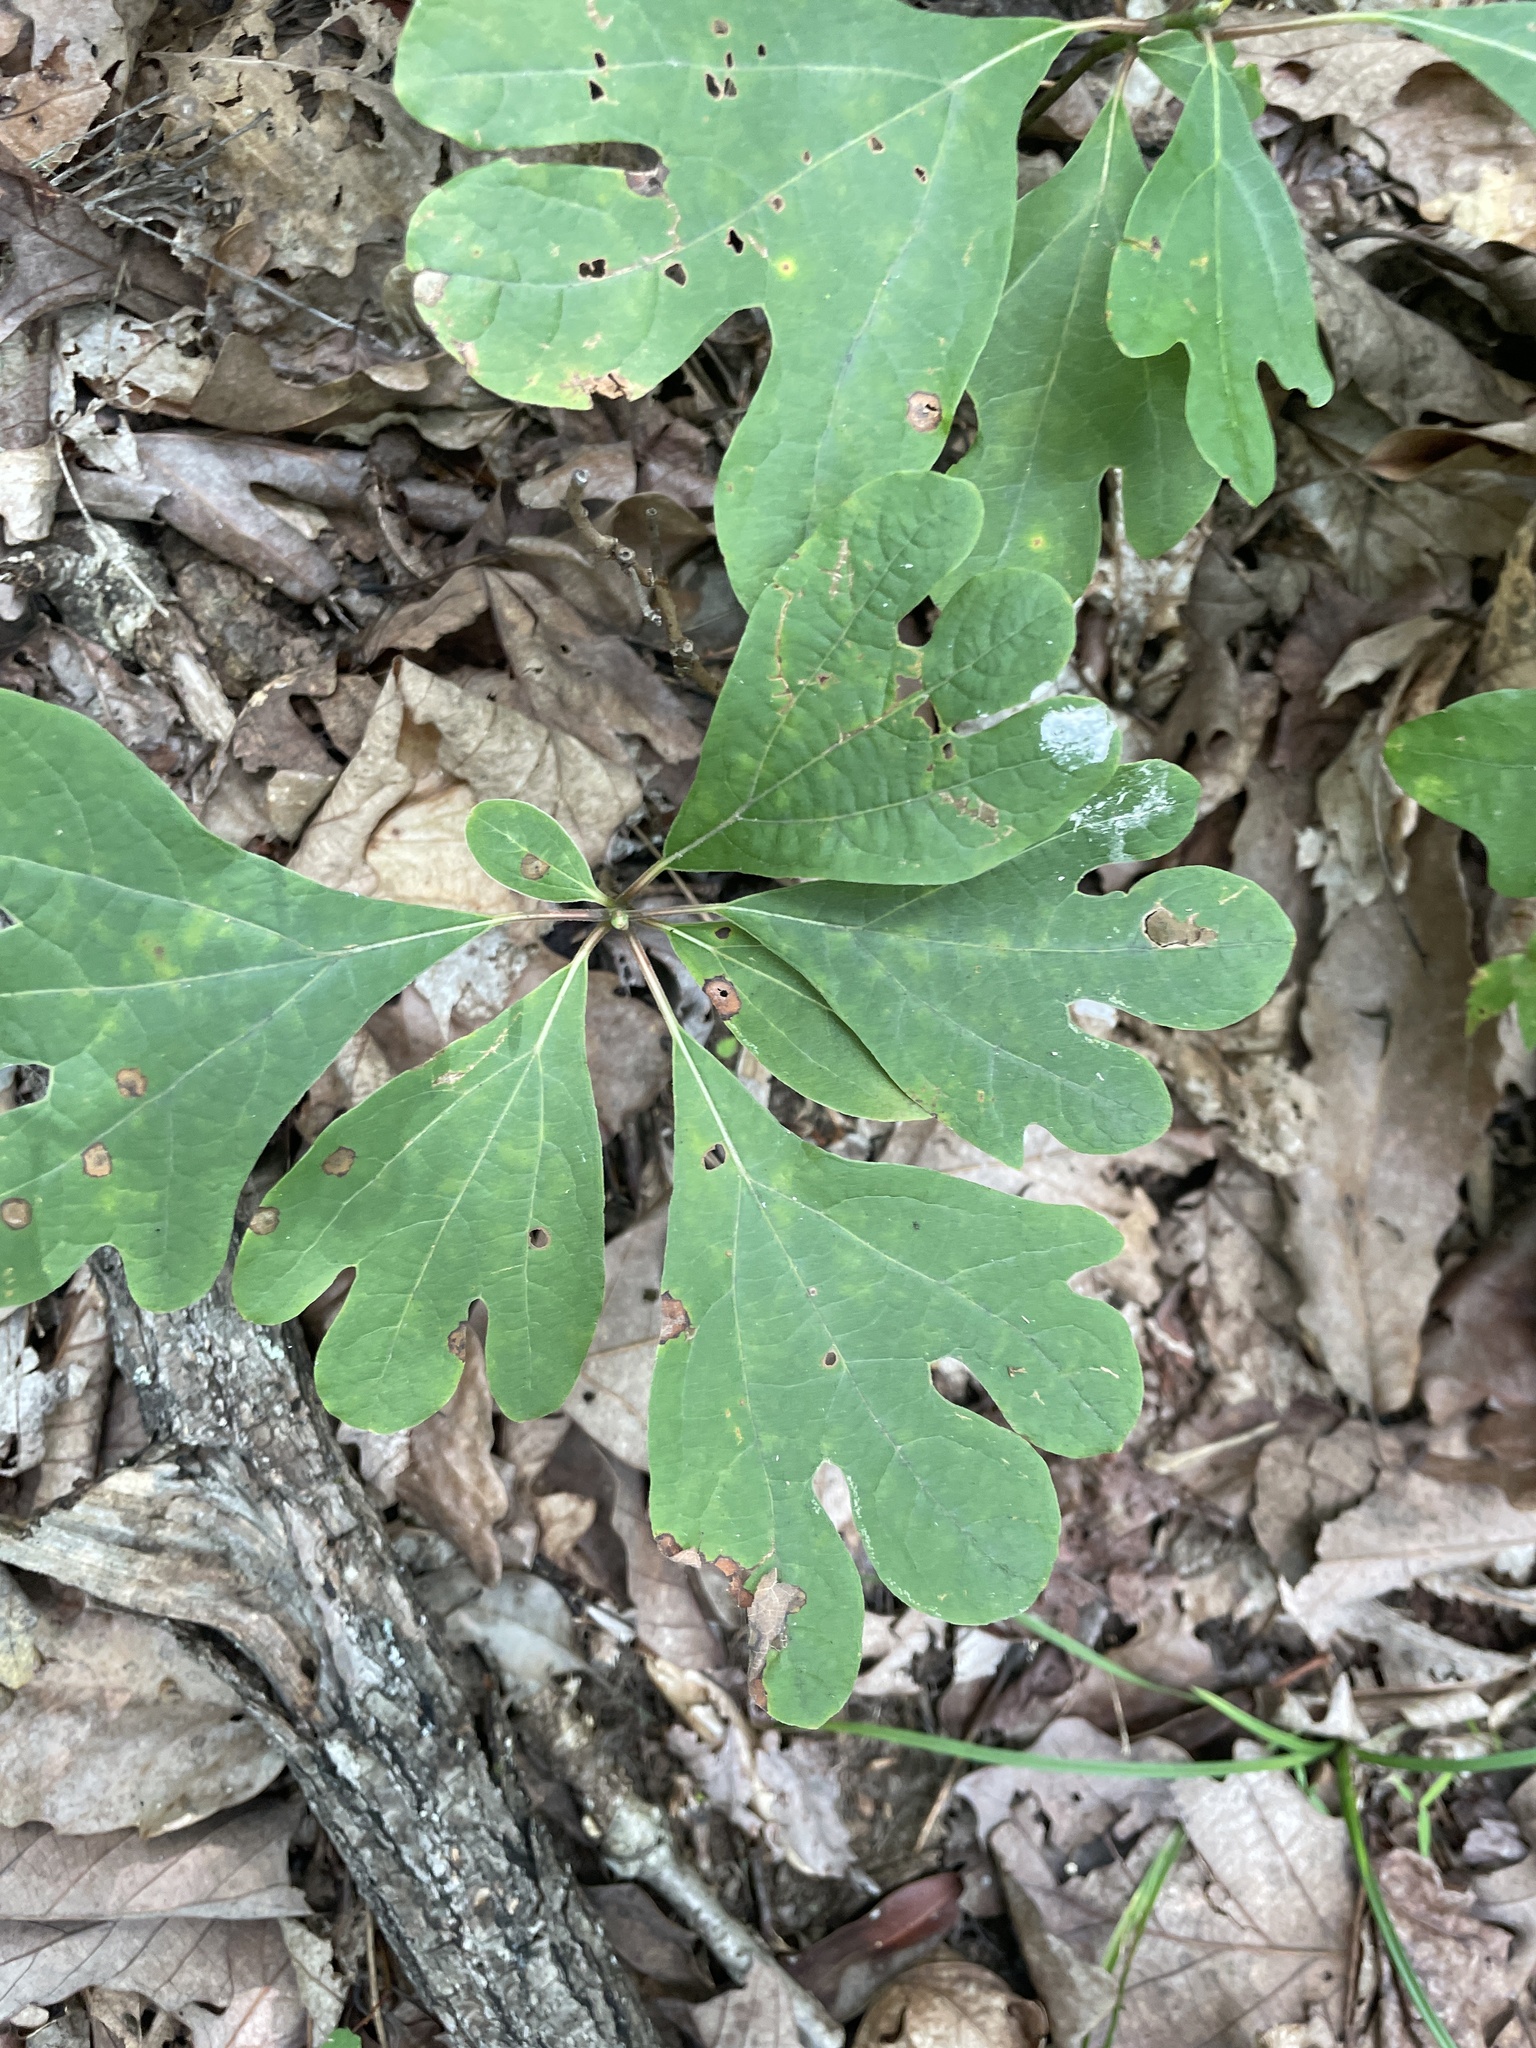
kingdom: Plantae
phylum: Tracheophyta
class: Magnoliopsida
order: Laurales
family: Lauraceae
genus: Sassafras
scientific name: Sassafras albidum
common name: Sassafras
